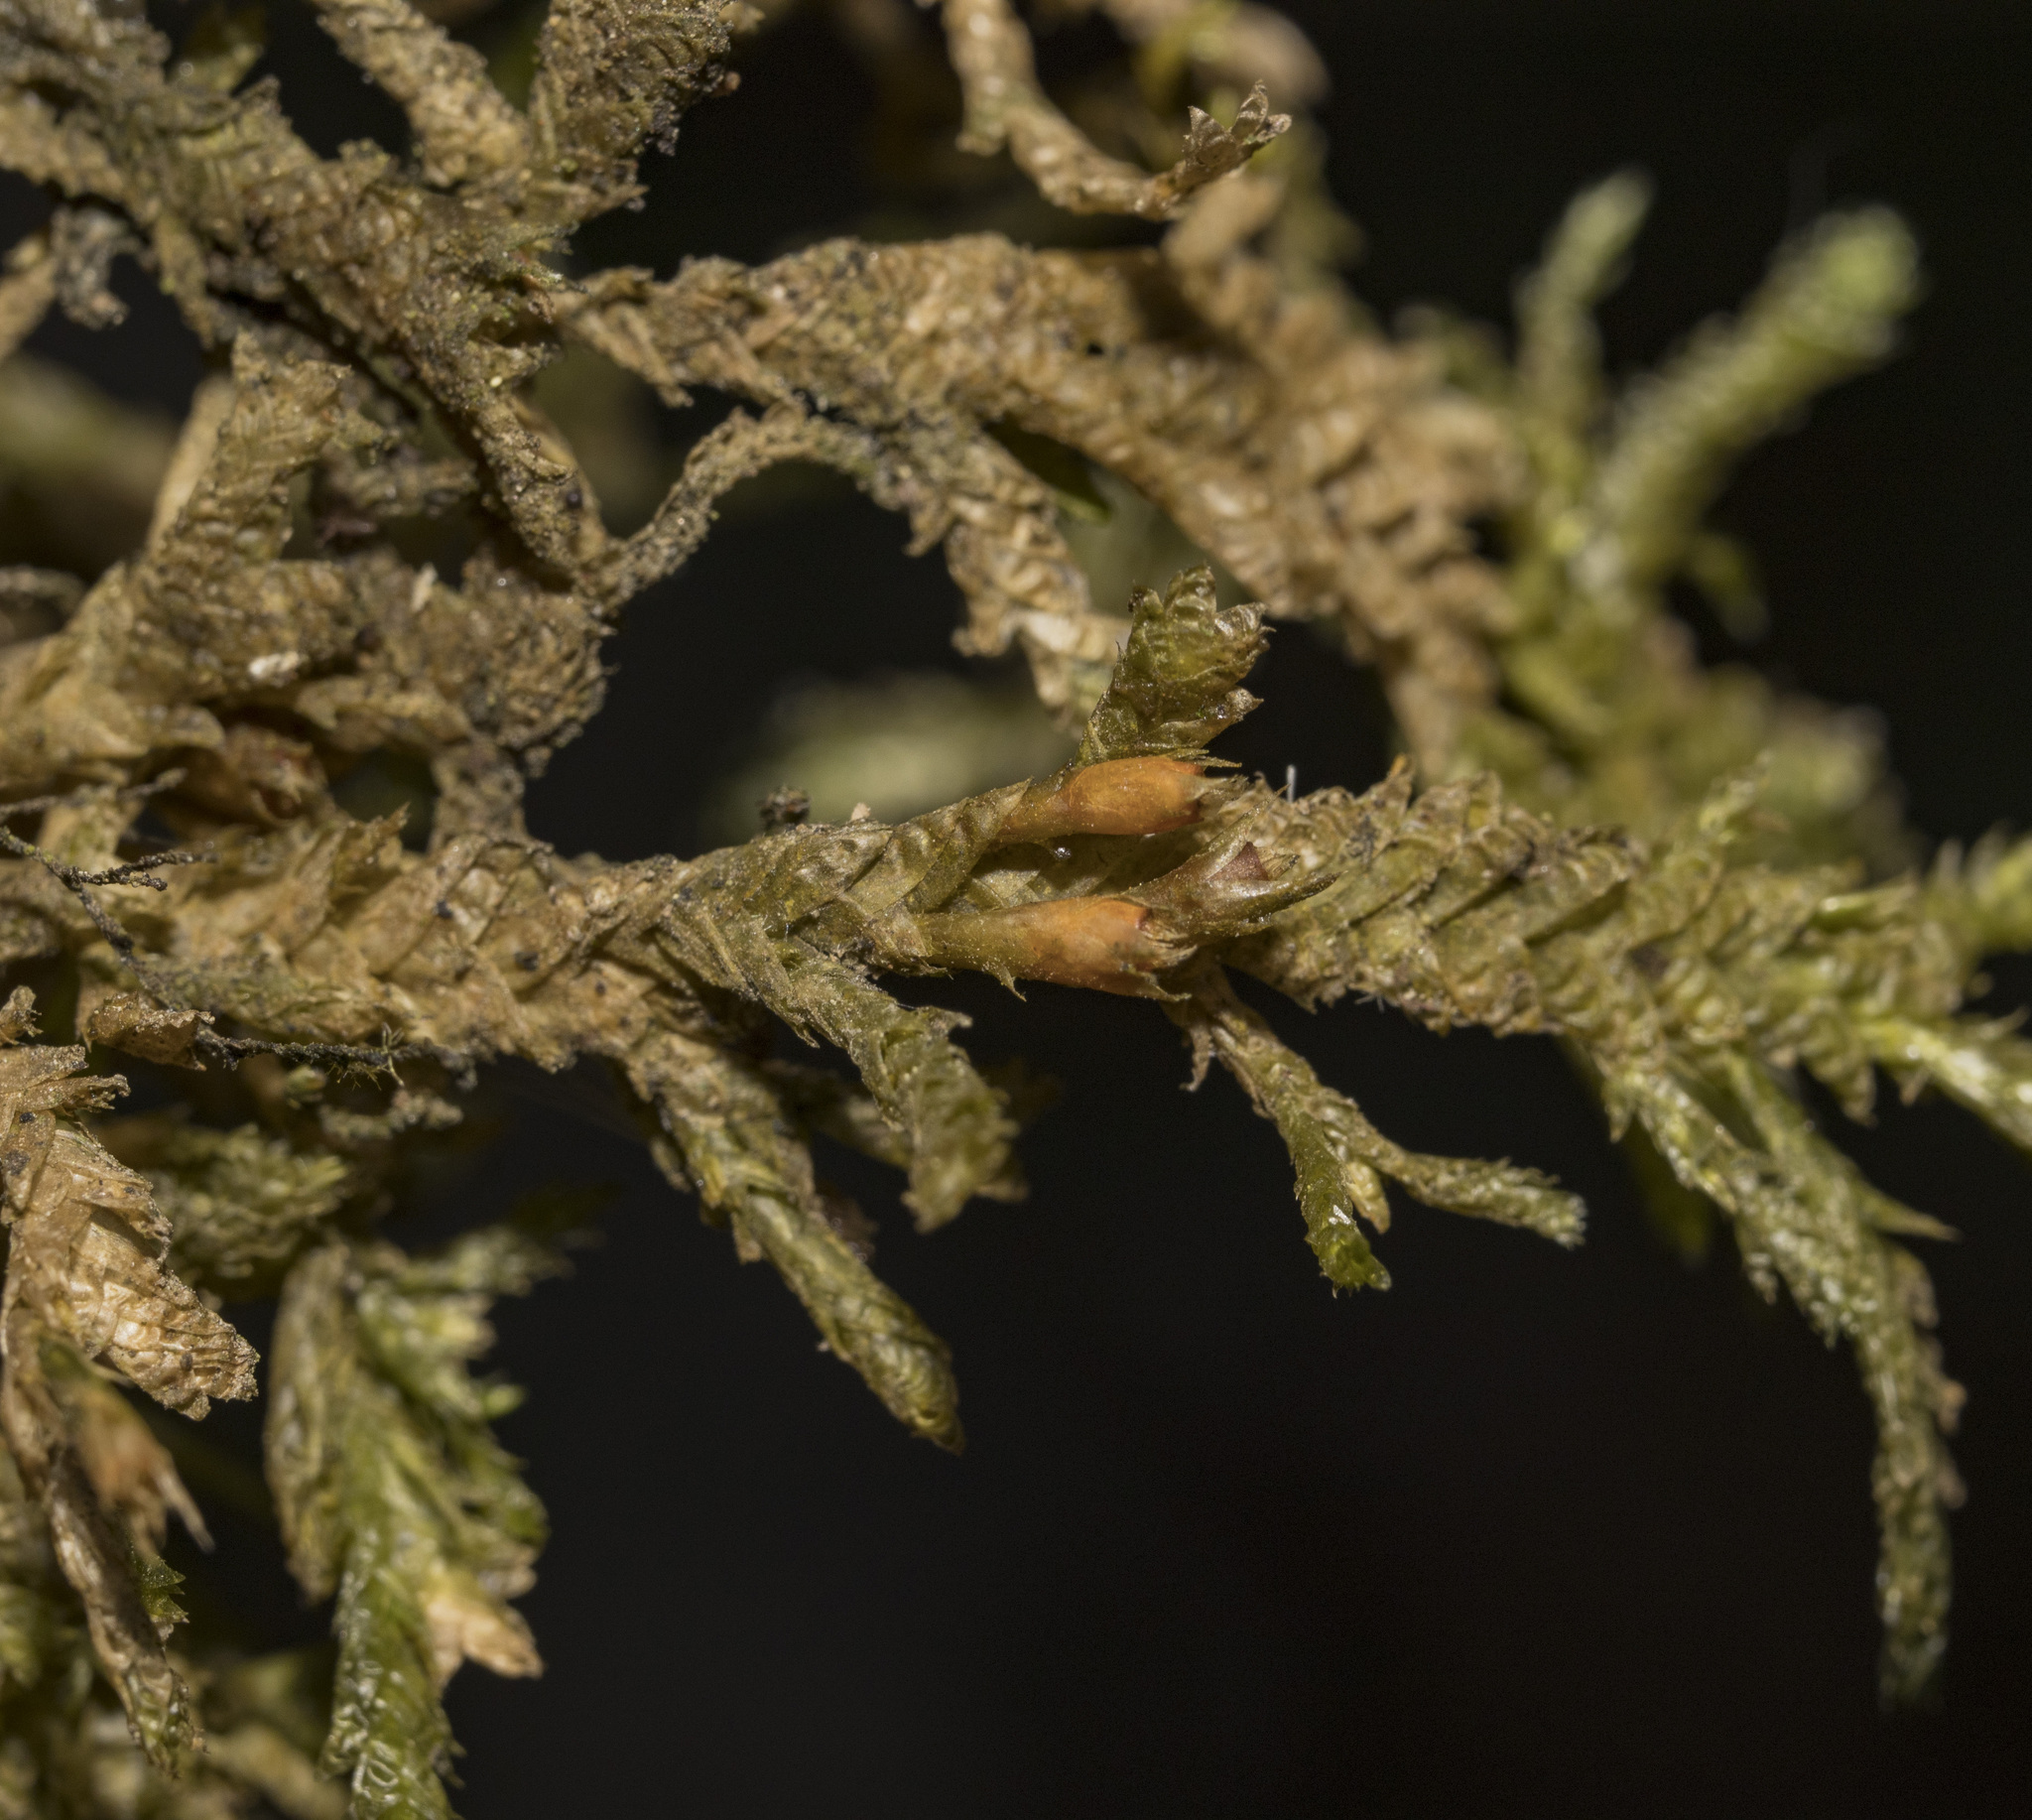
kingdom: Plantae
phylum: Bryophyta
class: Bryopsida
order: Hypnales
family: Neckeraceae
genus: Alleniella
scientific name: Alleniella scabridens
